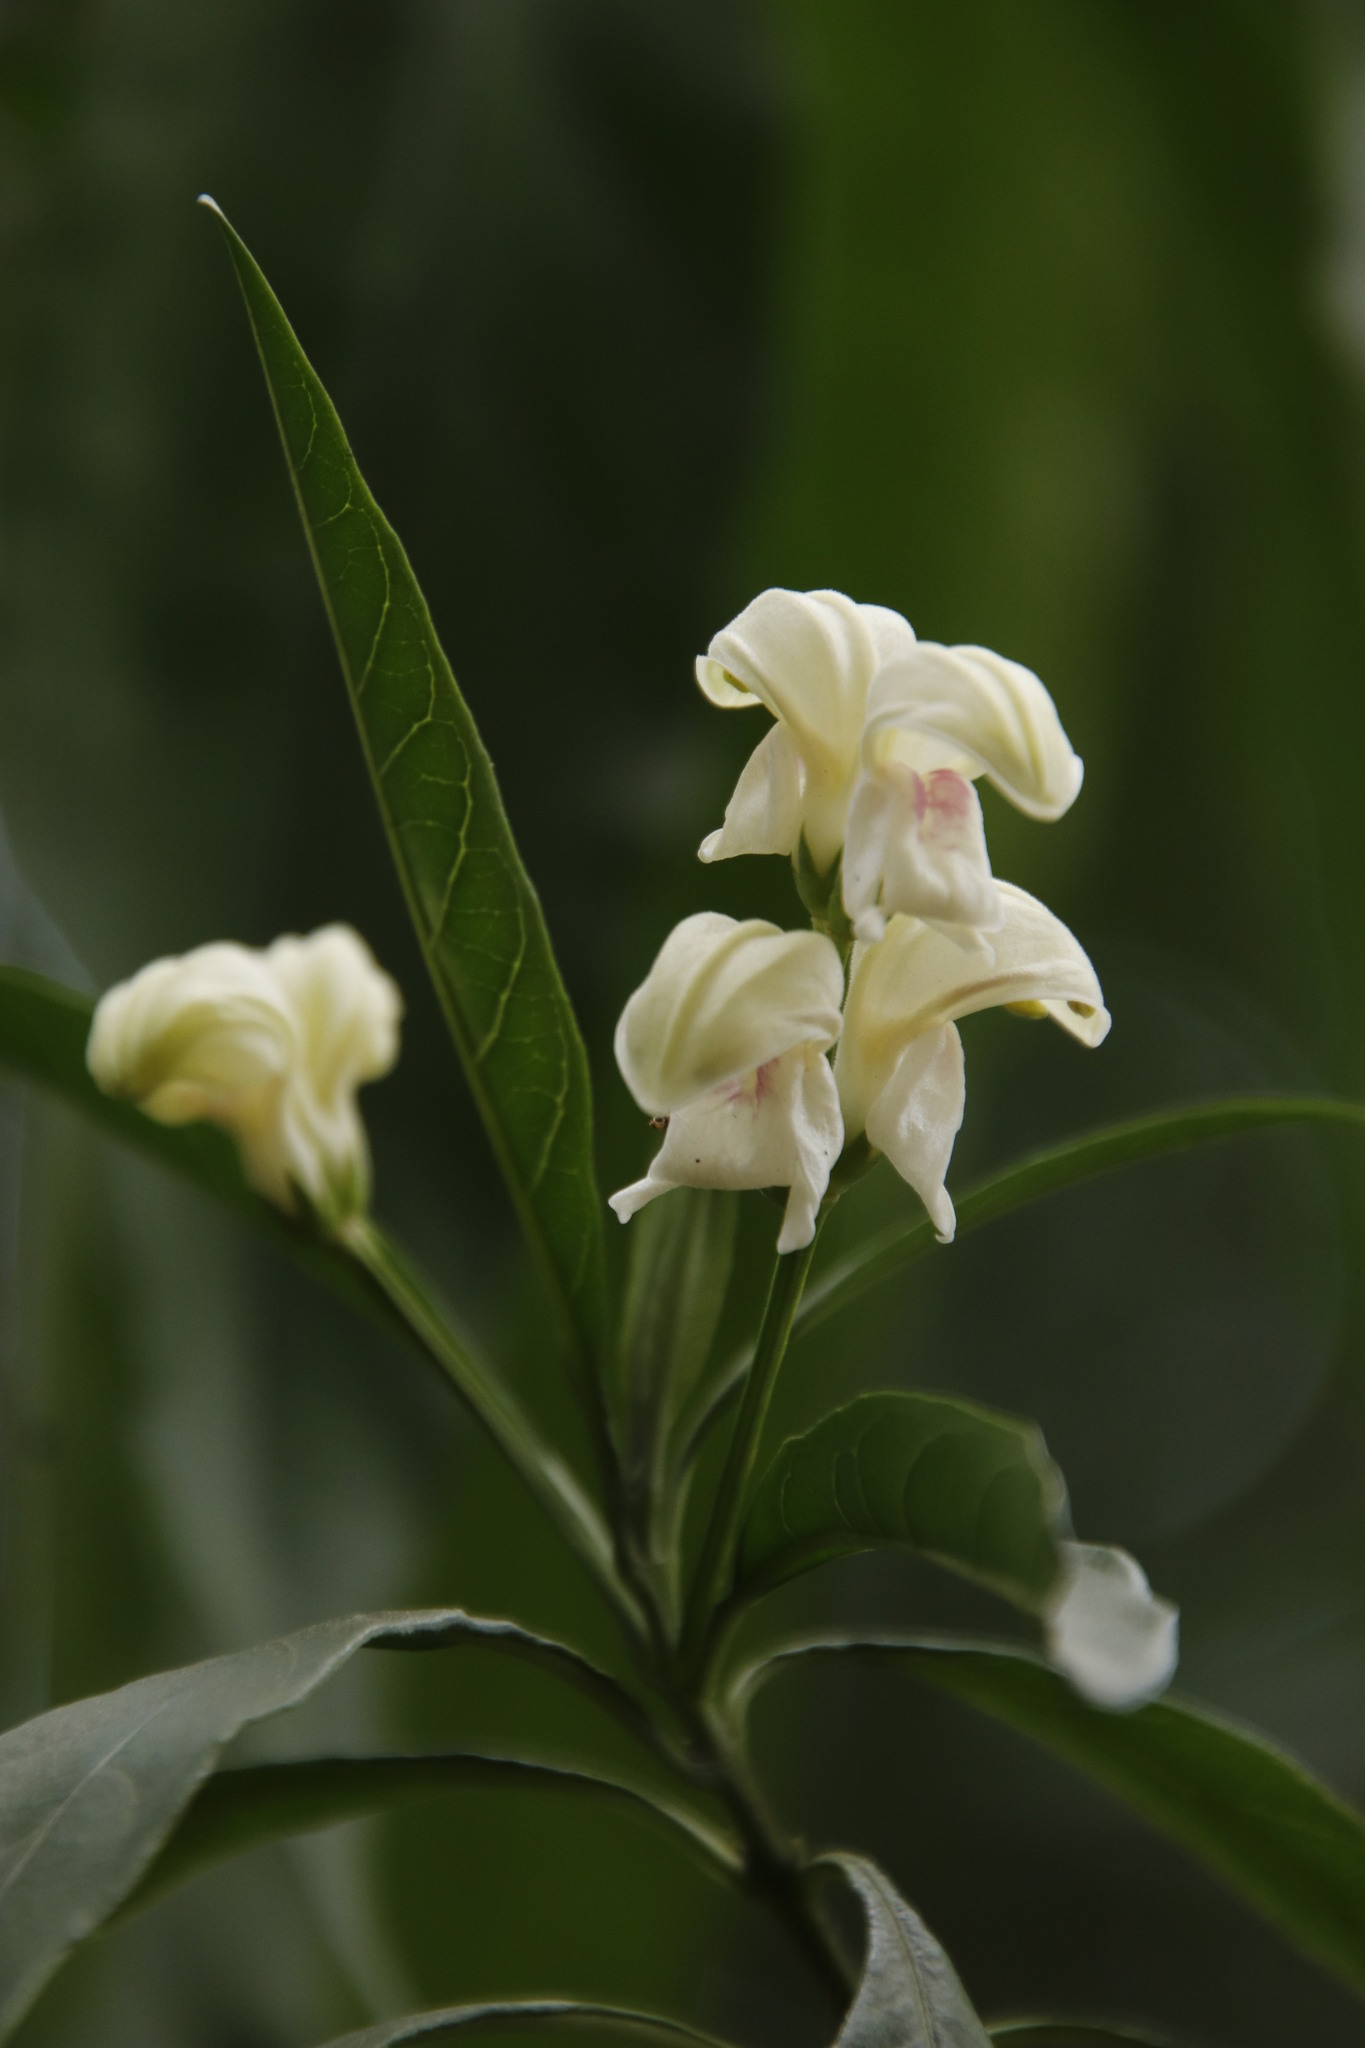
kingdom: Plantae
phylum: Tracheophyta
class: Magnoliopsida
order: Lamiales
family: Acanthaceae
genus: Justicia
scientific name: Justicia adhatodoides
